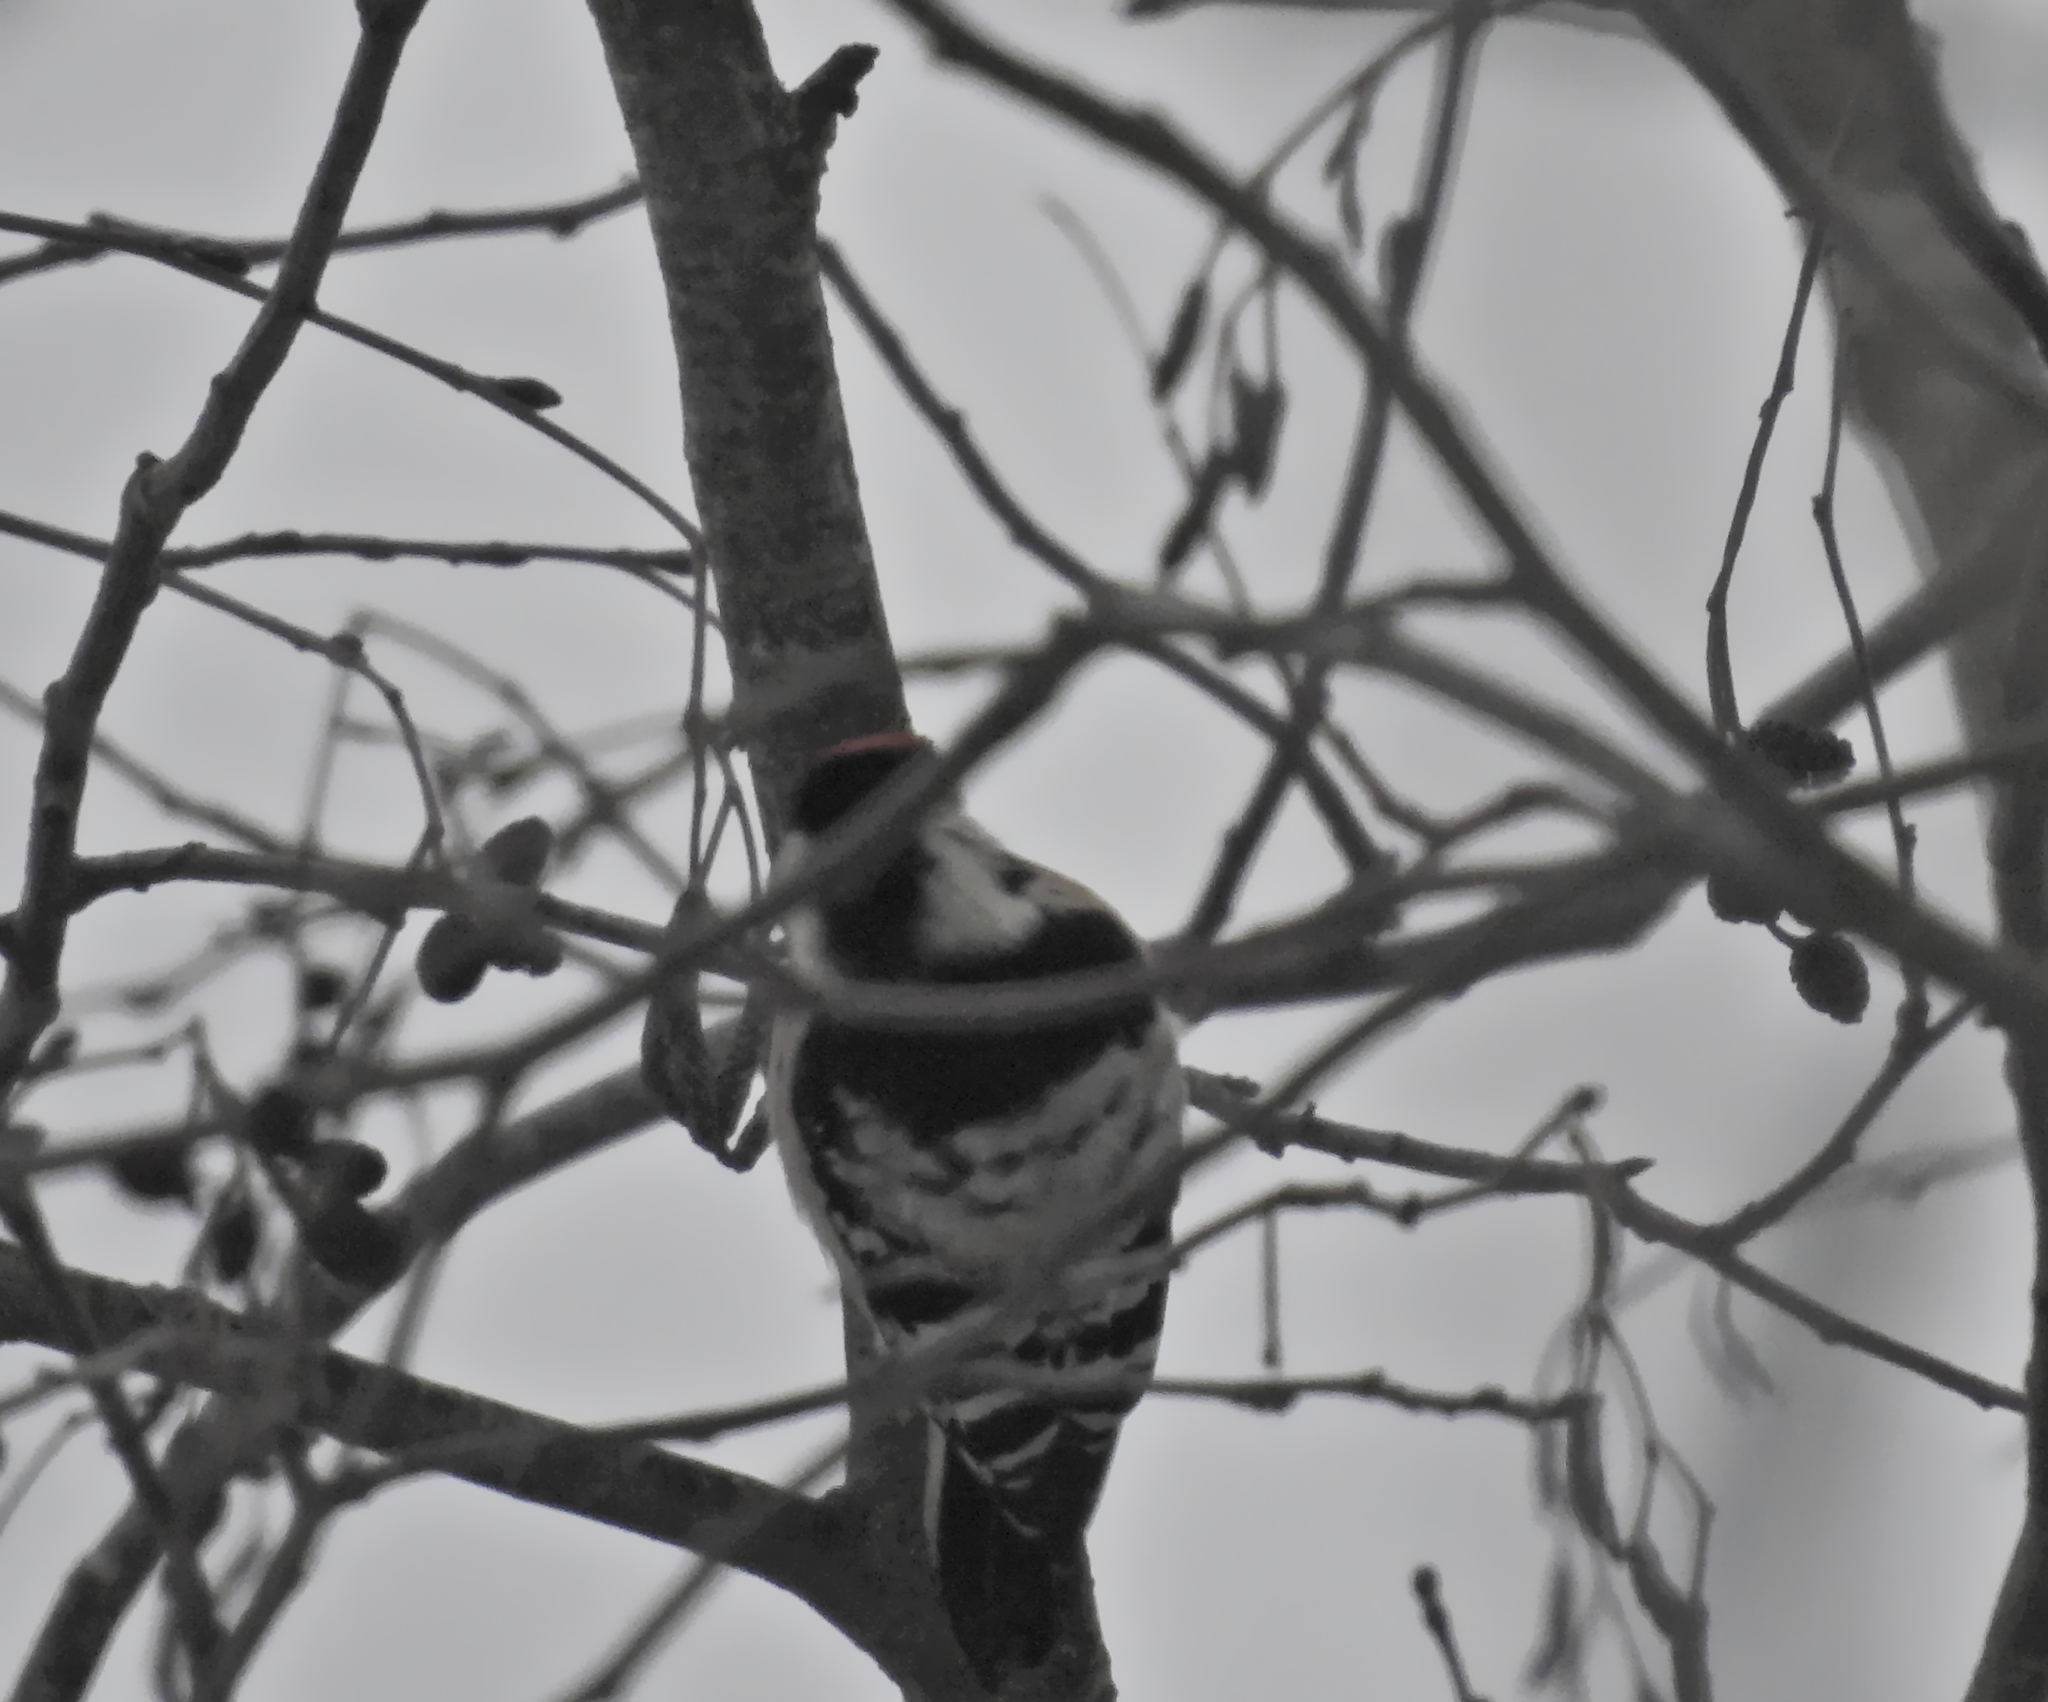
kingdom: Animalia
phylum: Chordata
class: Aves
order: Piciformes
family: Picidae
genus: Dryobates
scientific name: Dryobates minor
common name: Lesser spotted woodpecker
